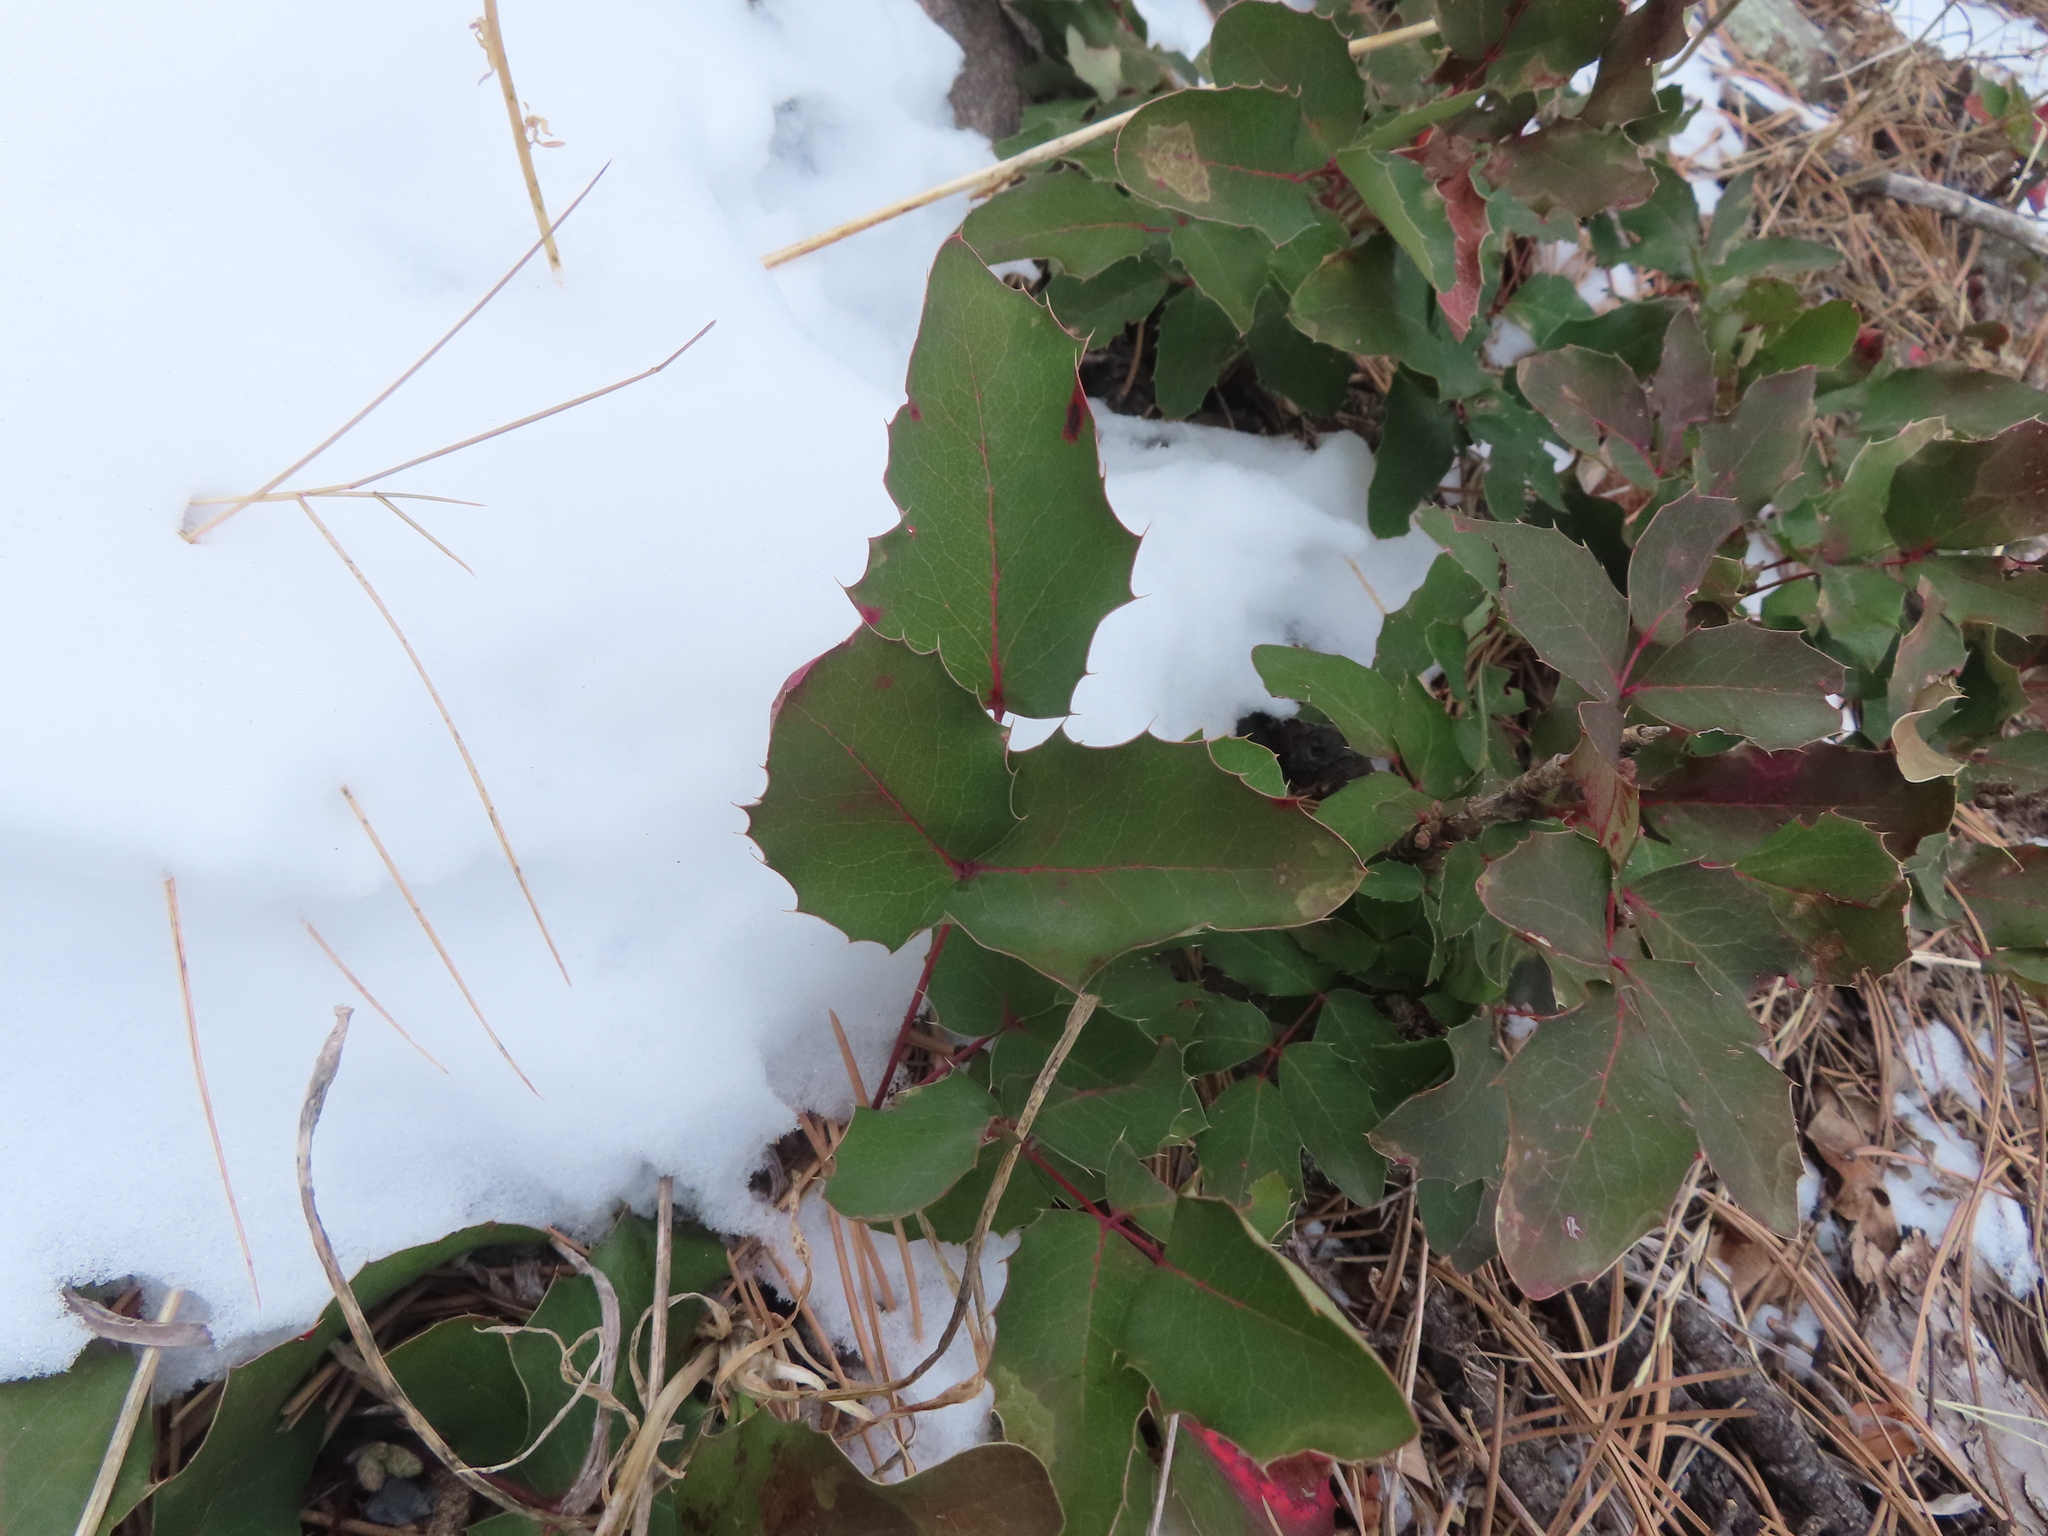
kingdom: Plantae
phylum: Tracheophyta
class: Magnoliopsida
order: Ranunculales
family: Berberidaceae
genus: Mahonia
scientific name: Mahonia repens
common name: Creeping oregon-grape
